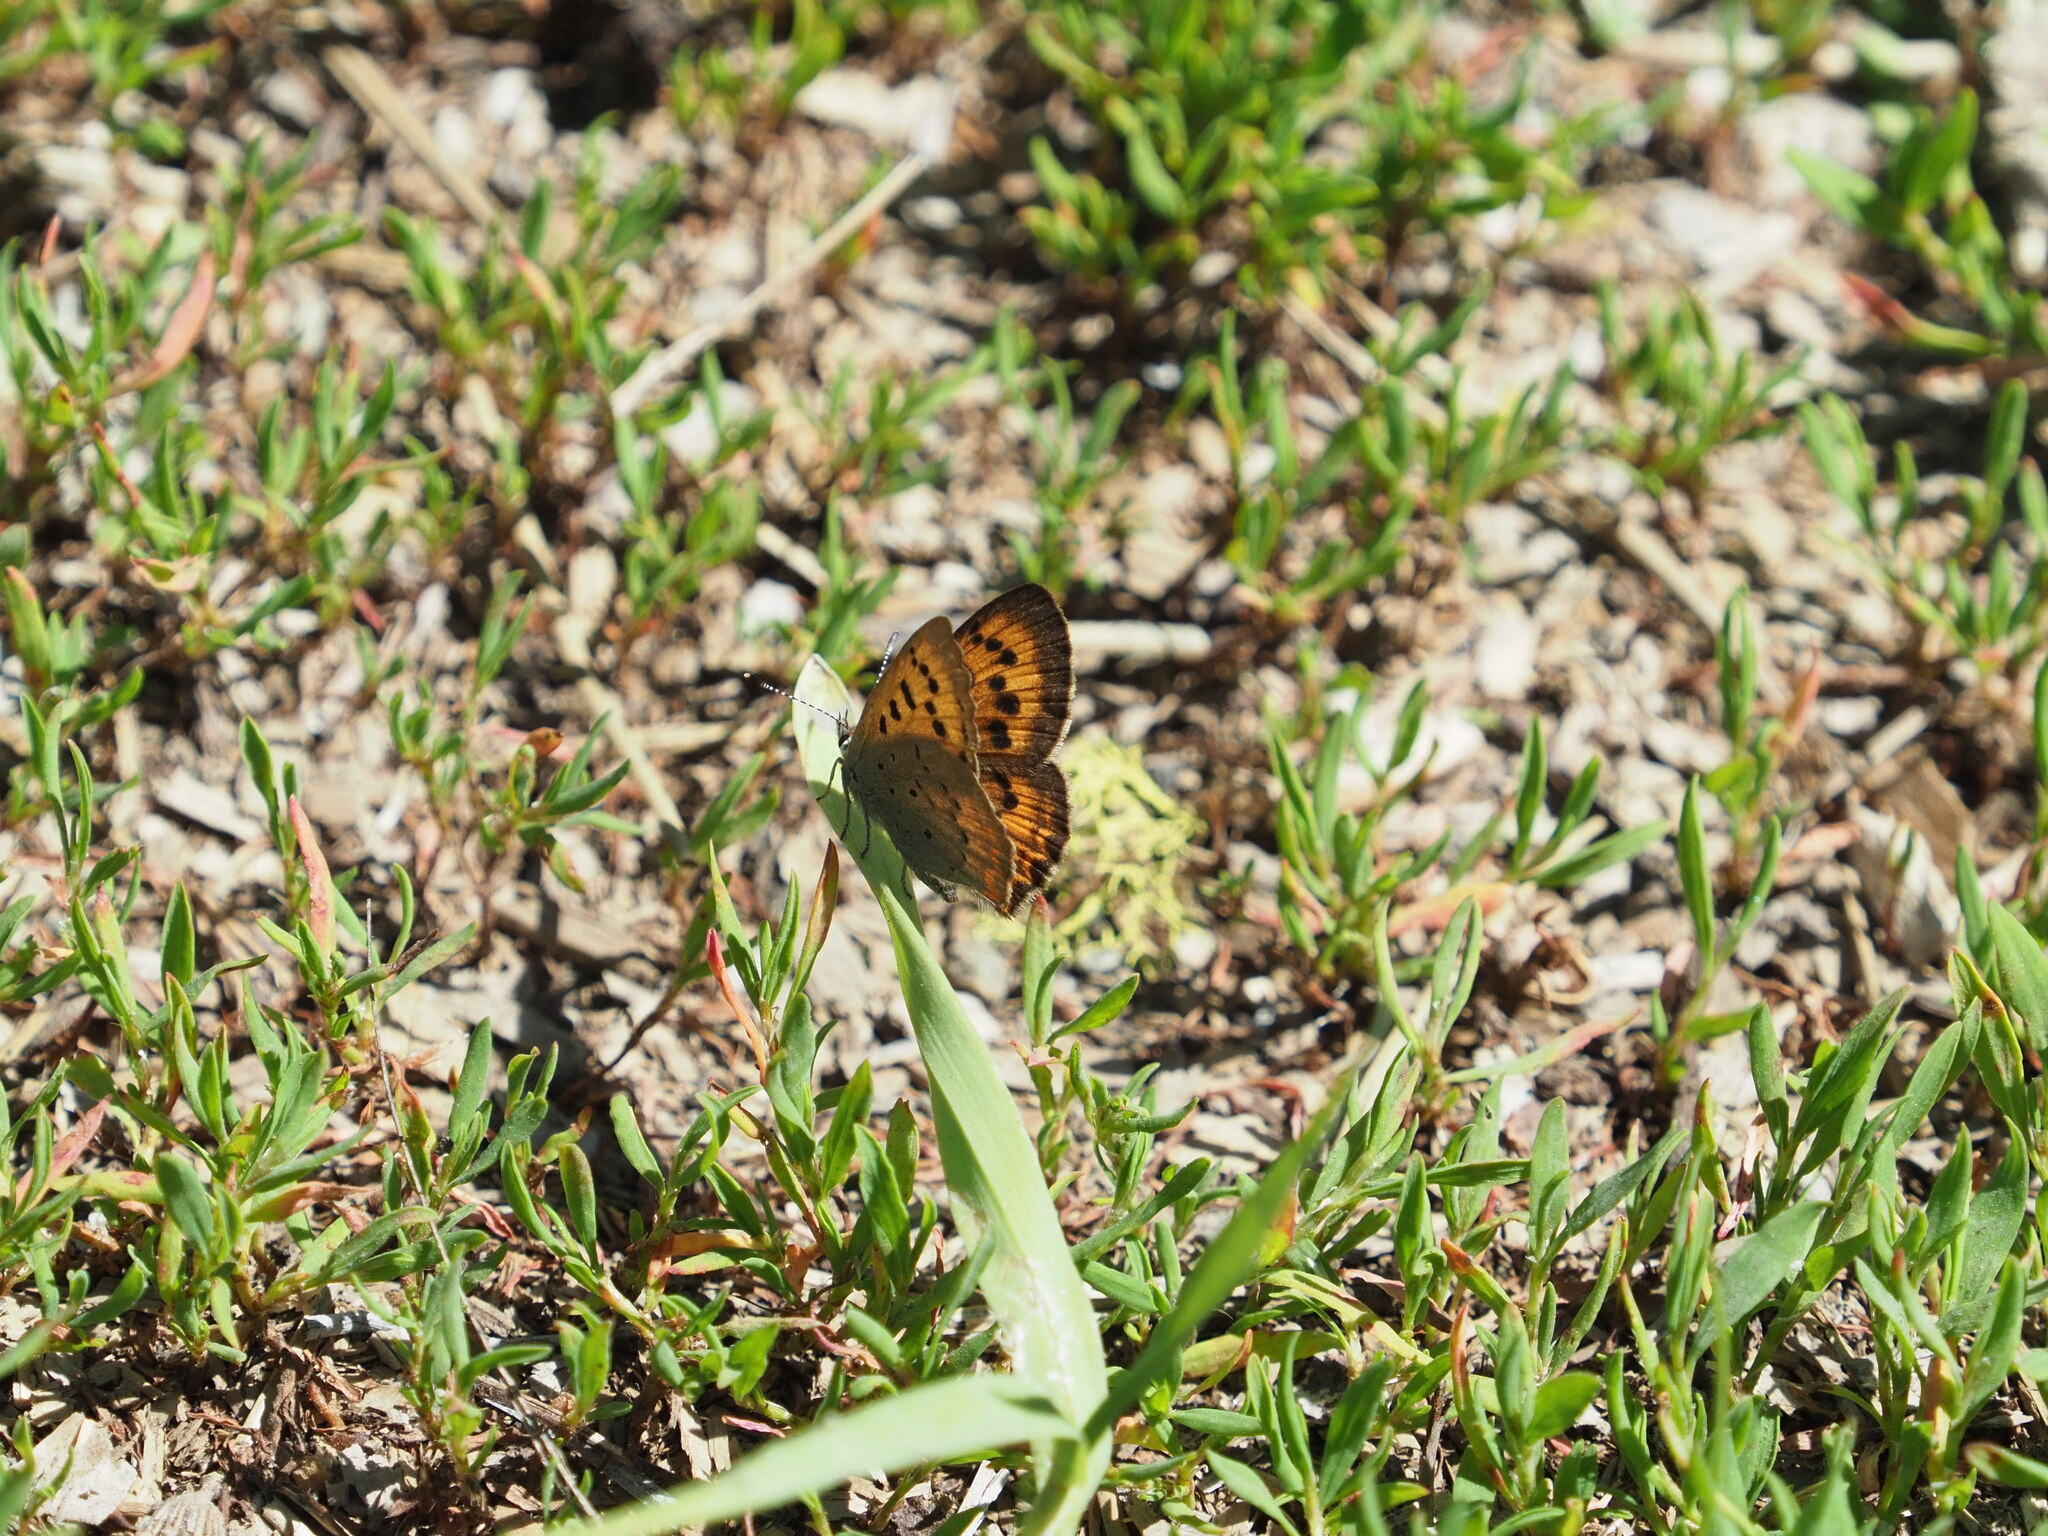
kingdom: Animalia
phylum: Arthropoda
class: Insecta
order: Lepidoptera
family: Lycaenidae
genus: Tharsalea
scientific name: Tharsalea helloides
